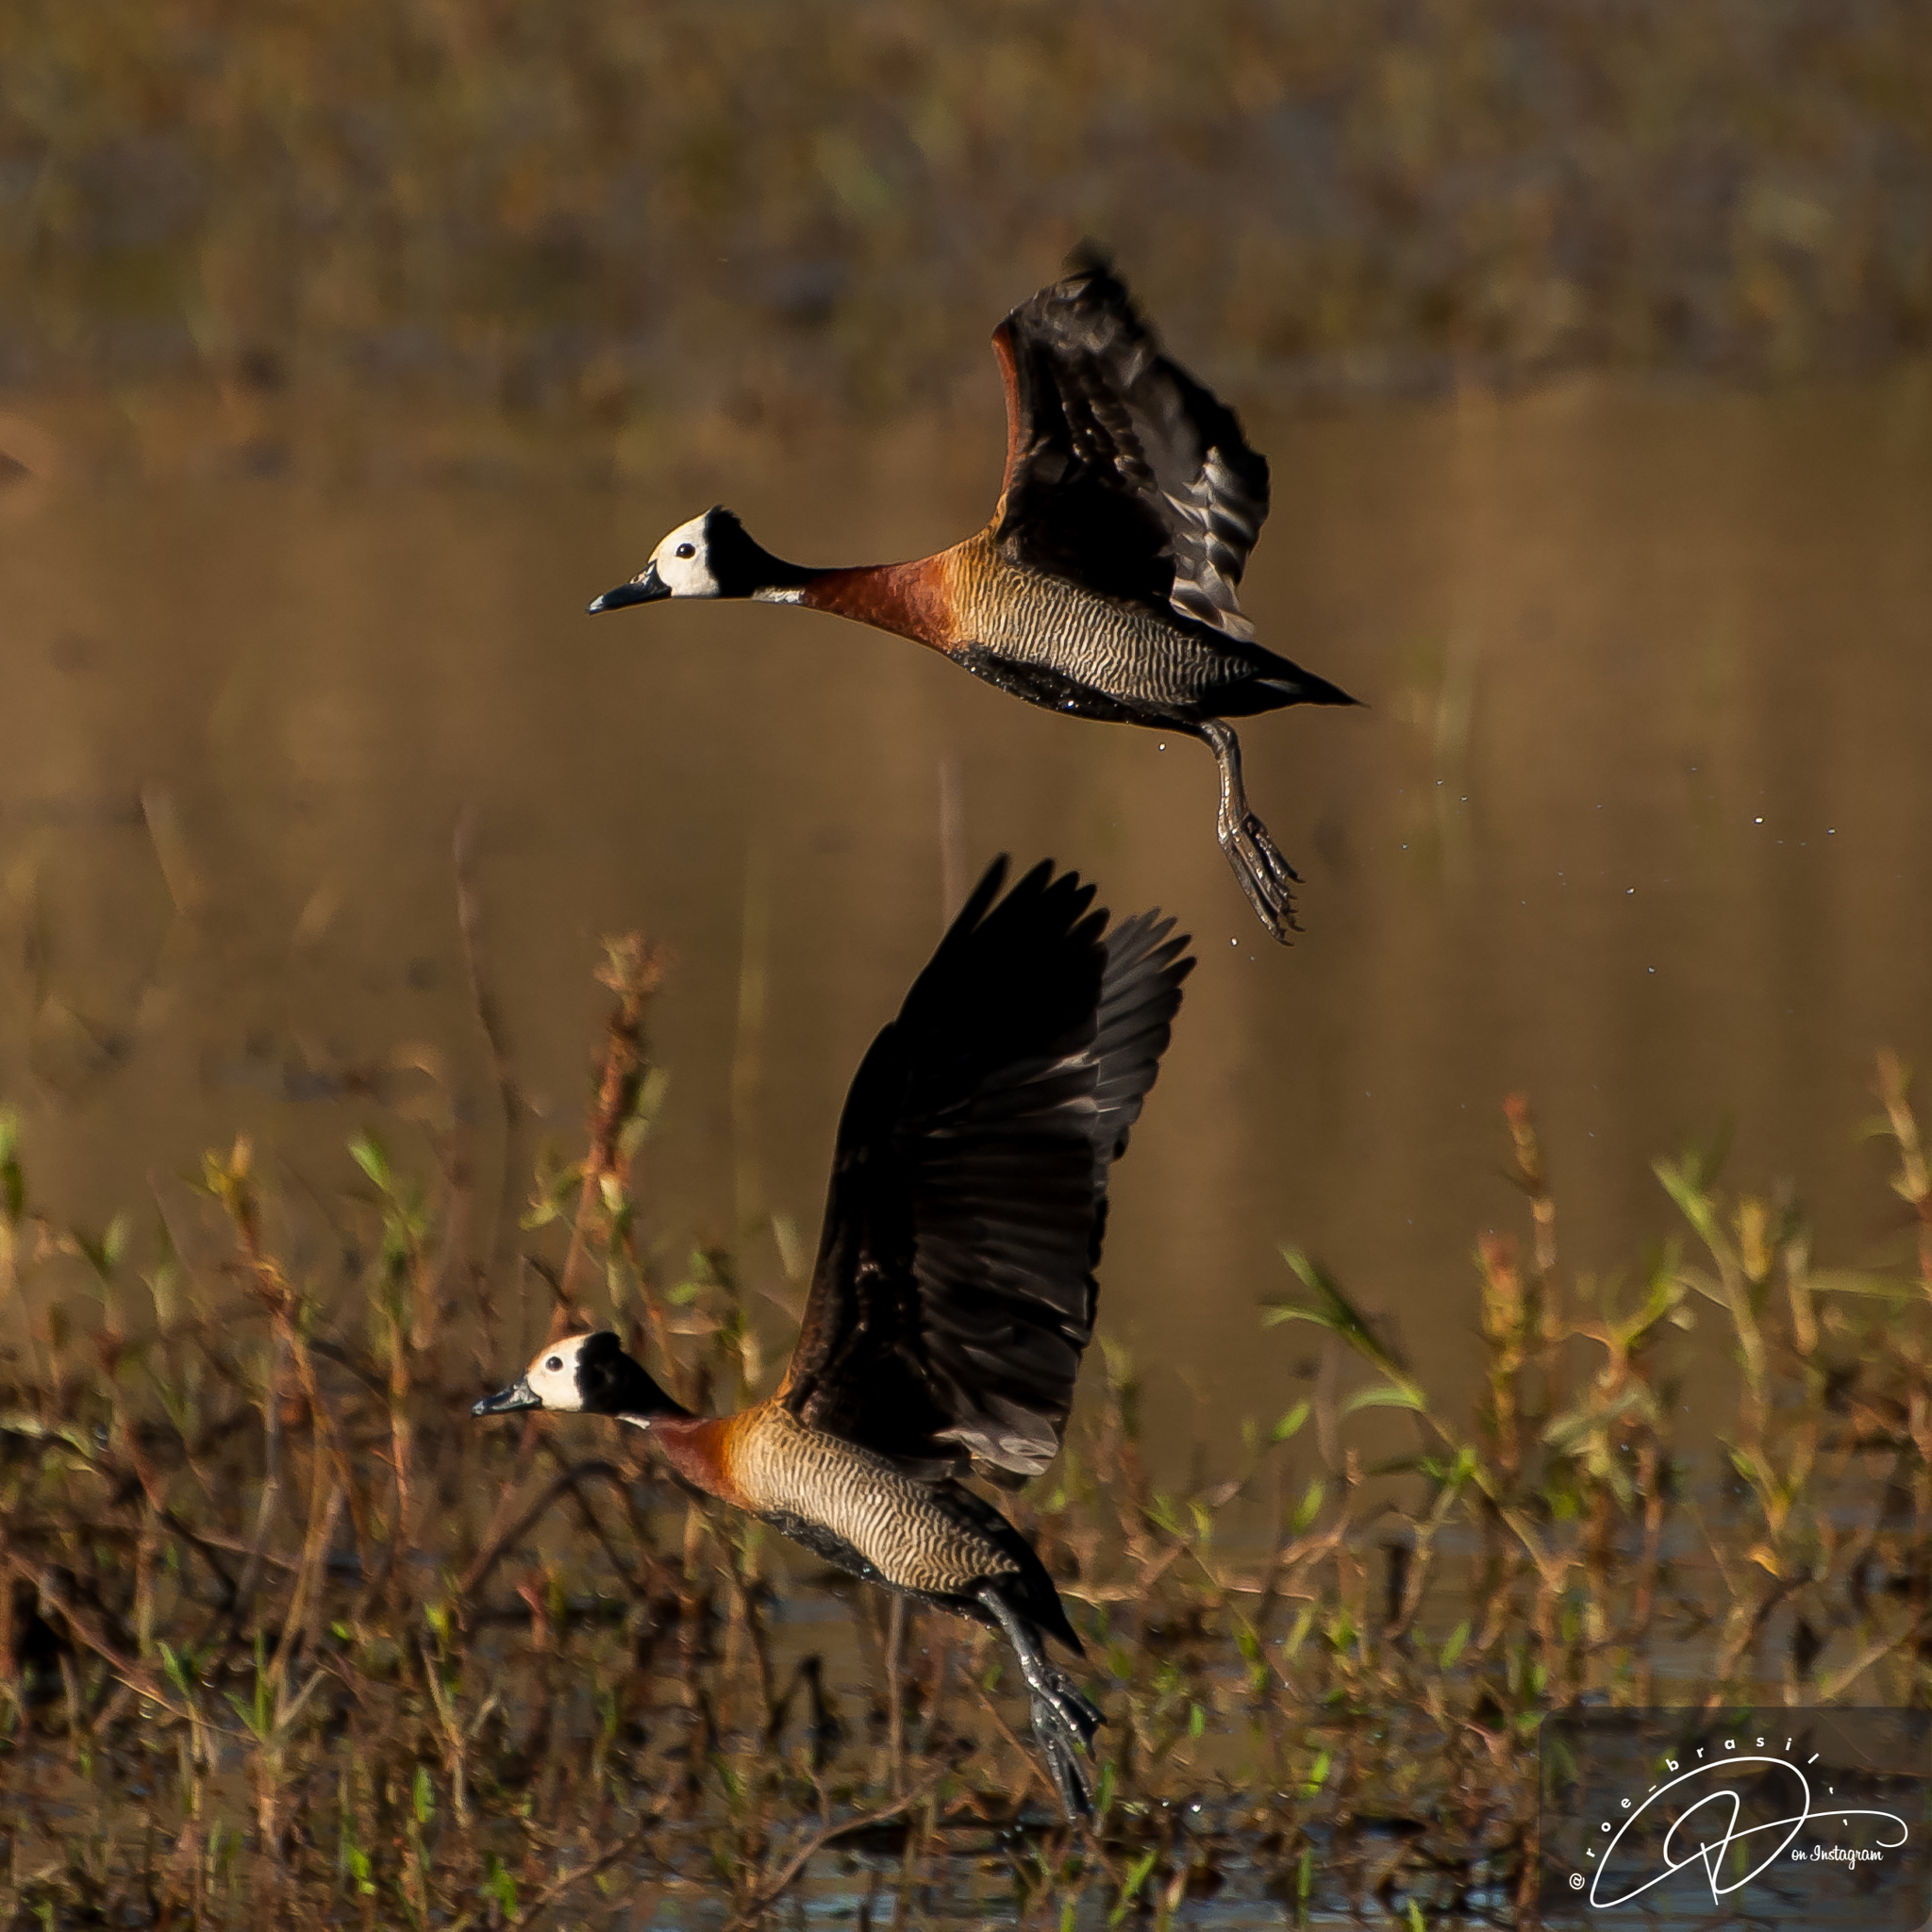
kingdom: Animalia
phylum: Chordata
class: Aves
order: Anseriformes
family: Anatidae
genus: Dendrocygna
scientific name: Dendrocygna viduata
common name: White-faced whistling duck
